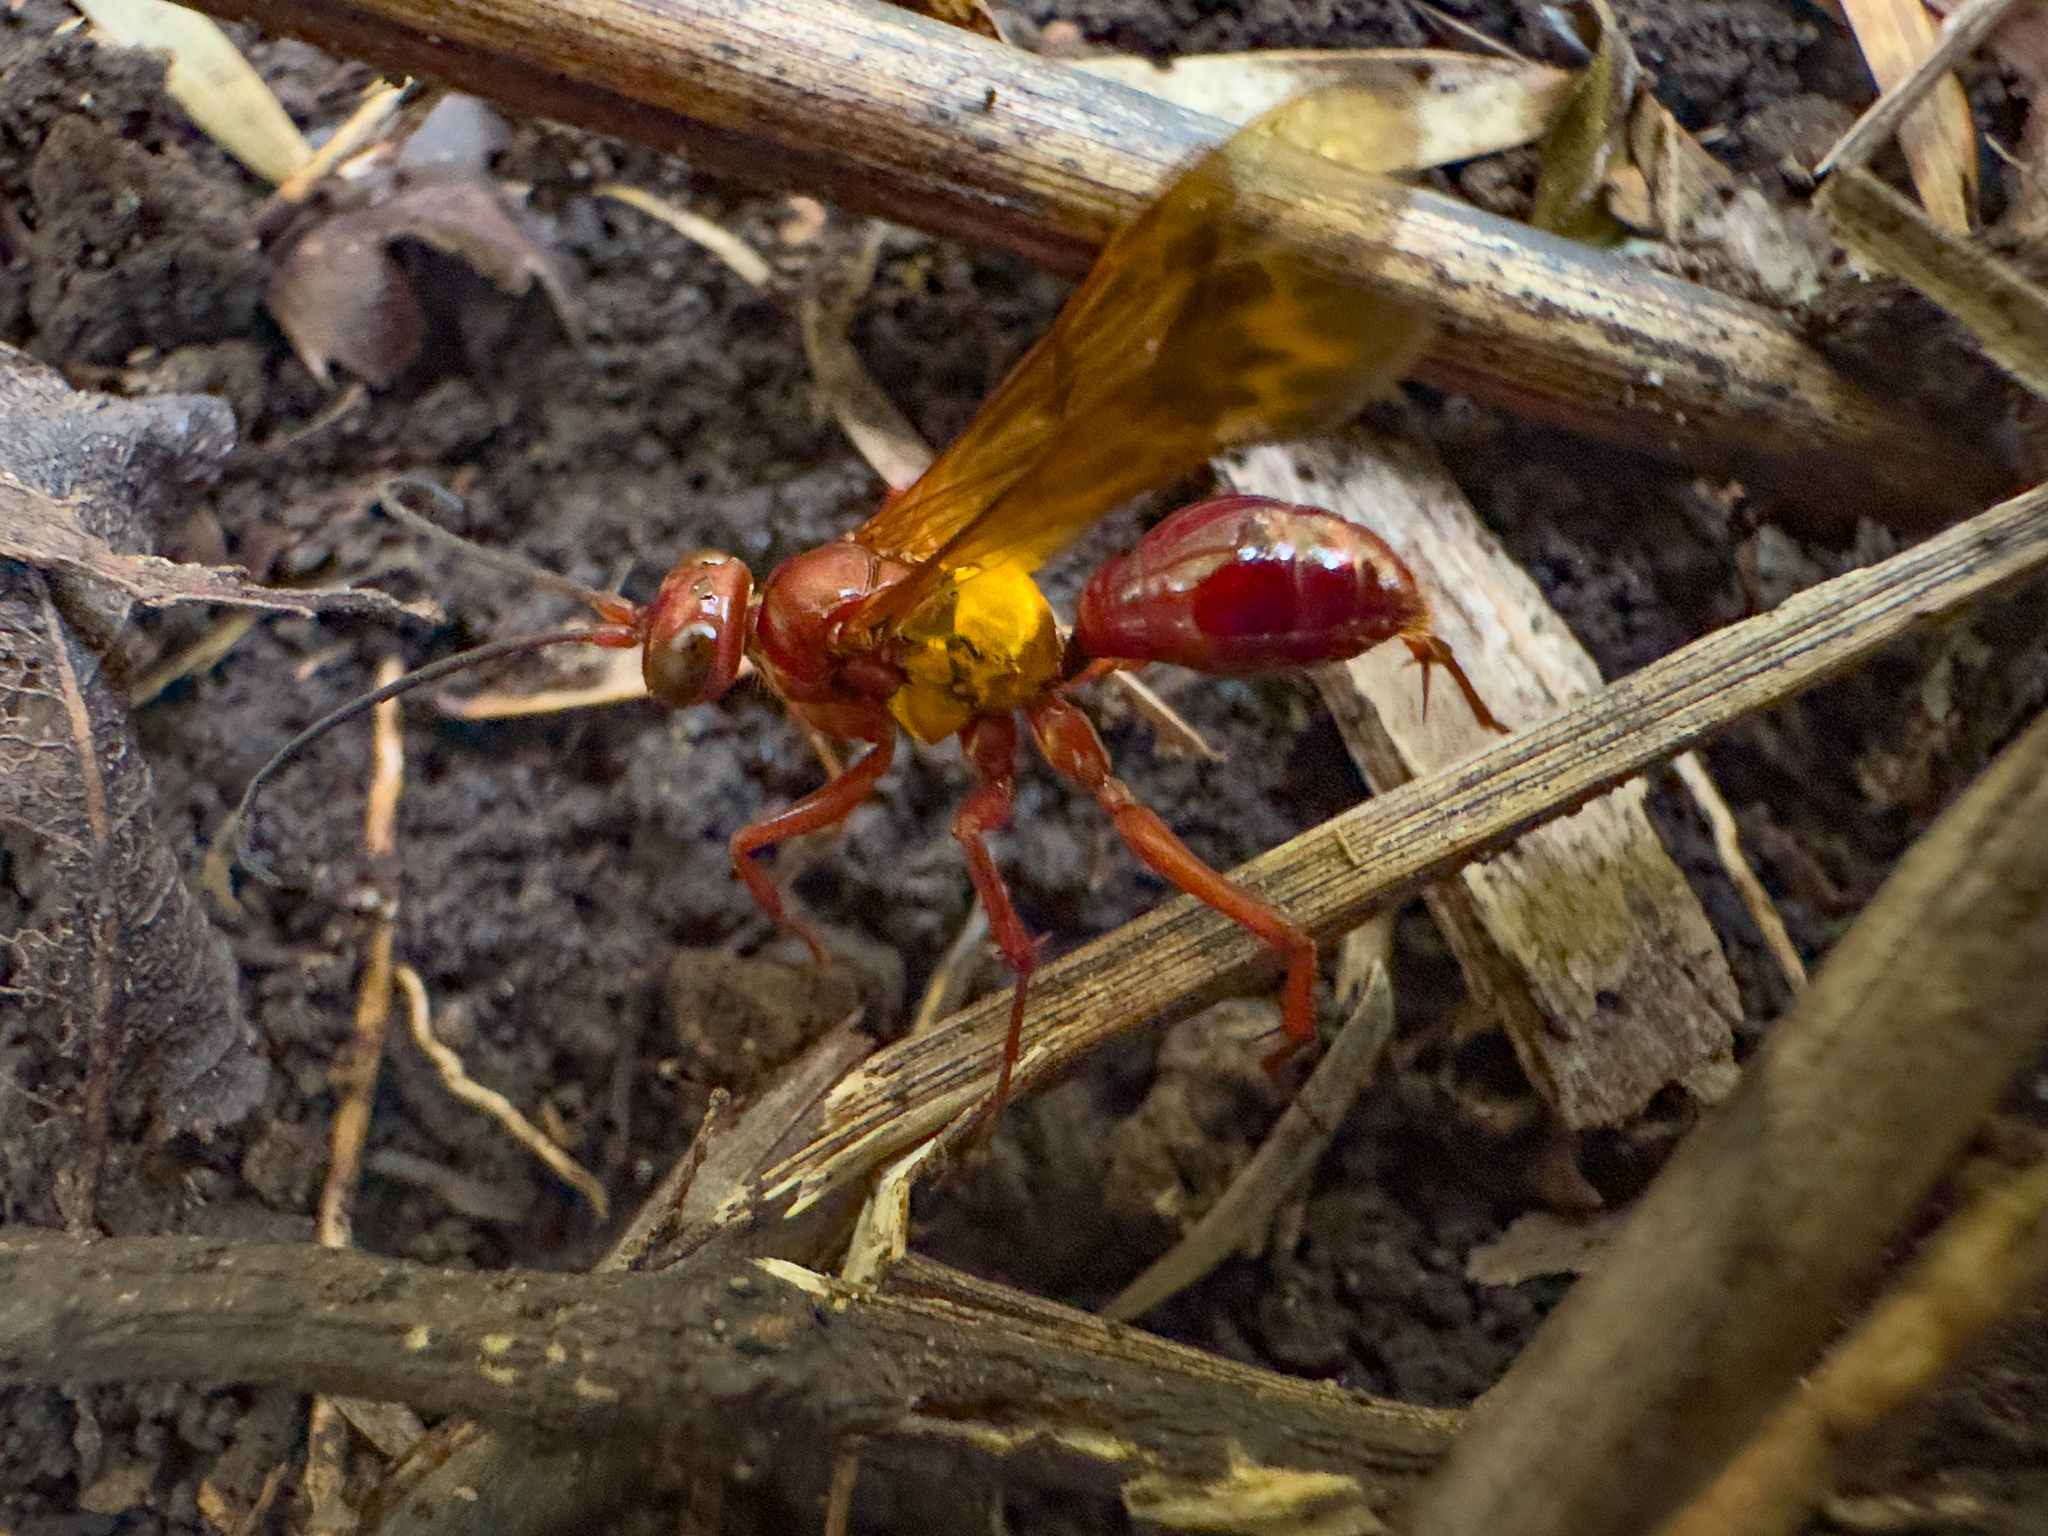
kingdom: Animalia
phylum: Arthropoda
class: Insecta
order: Hymenoptera
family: Pompilidae
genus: Sphictostethus
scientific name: Sphictostethus nitidus
